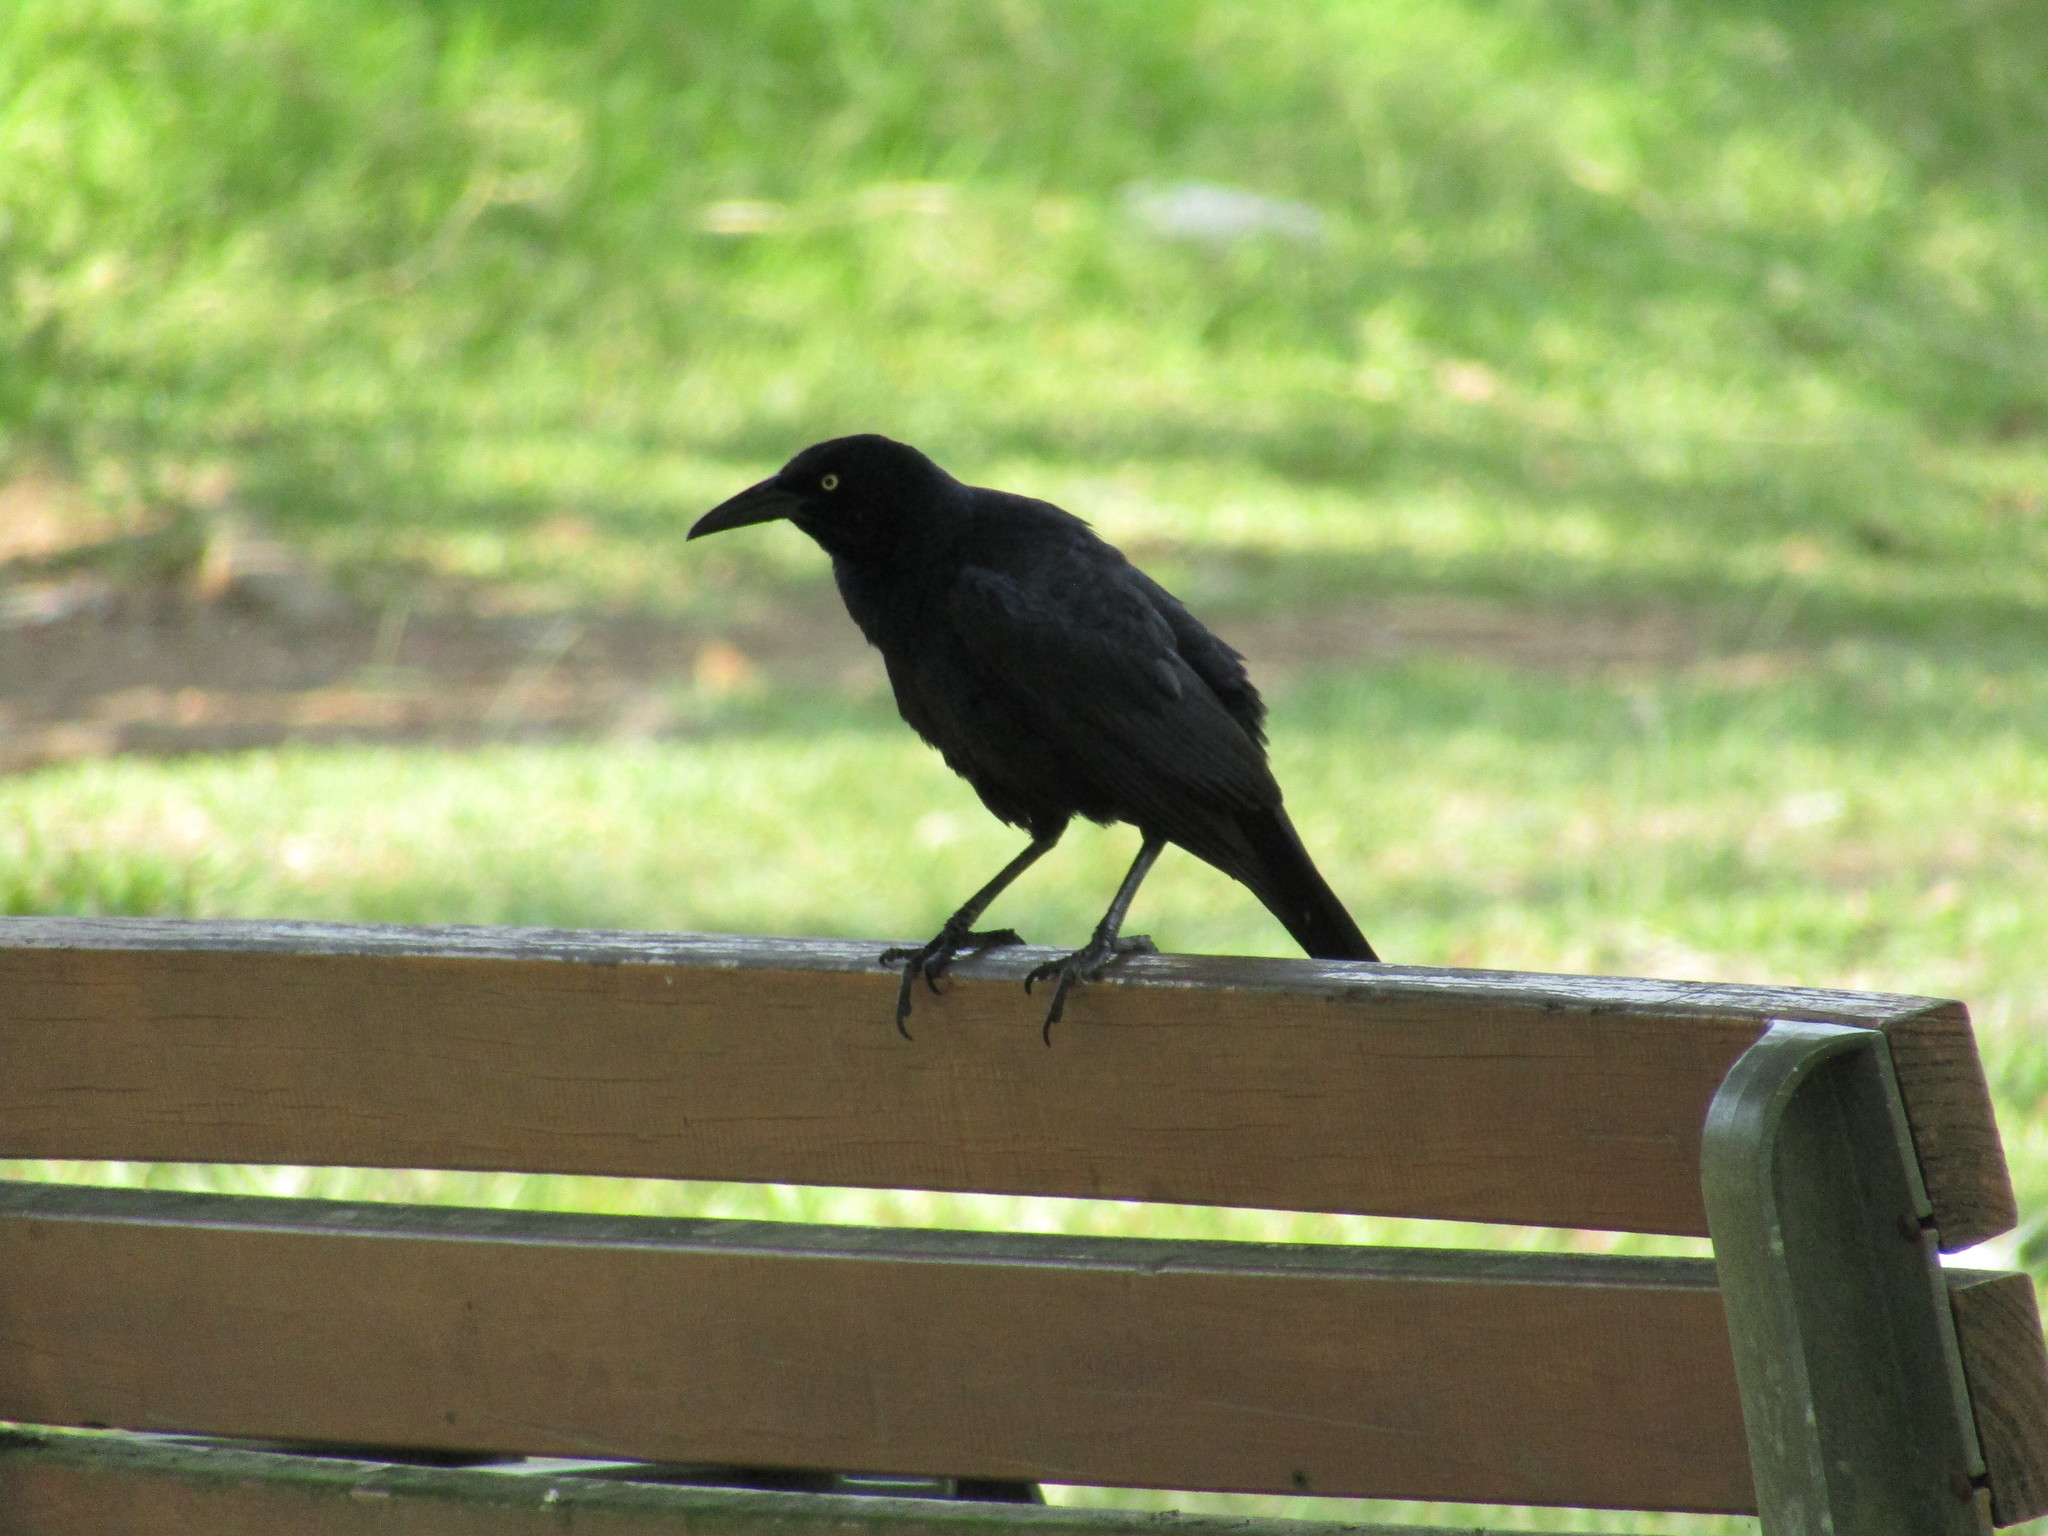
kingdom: Animalia
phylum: Chordata
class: Aves
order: Passeriformes
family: Icteridae
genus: Quiscalus
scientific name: Quiscalus mexicanus
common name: Great-tailed grackle
